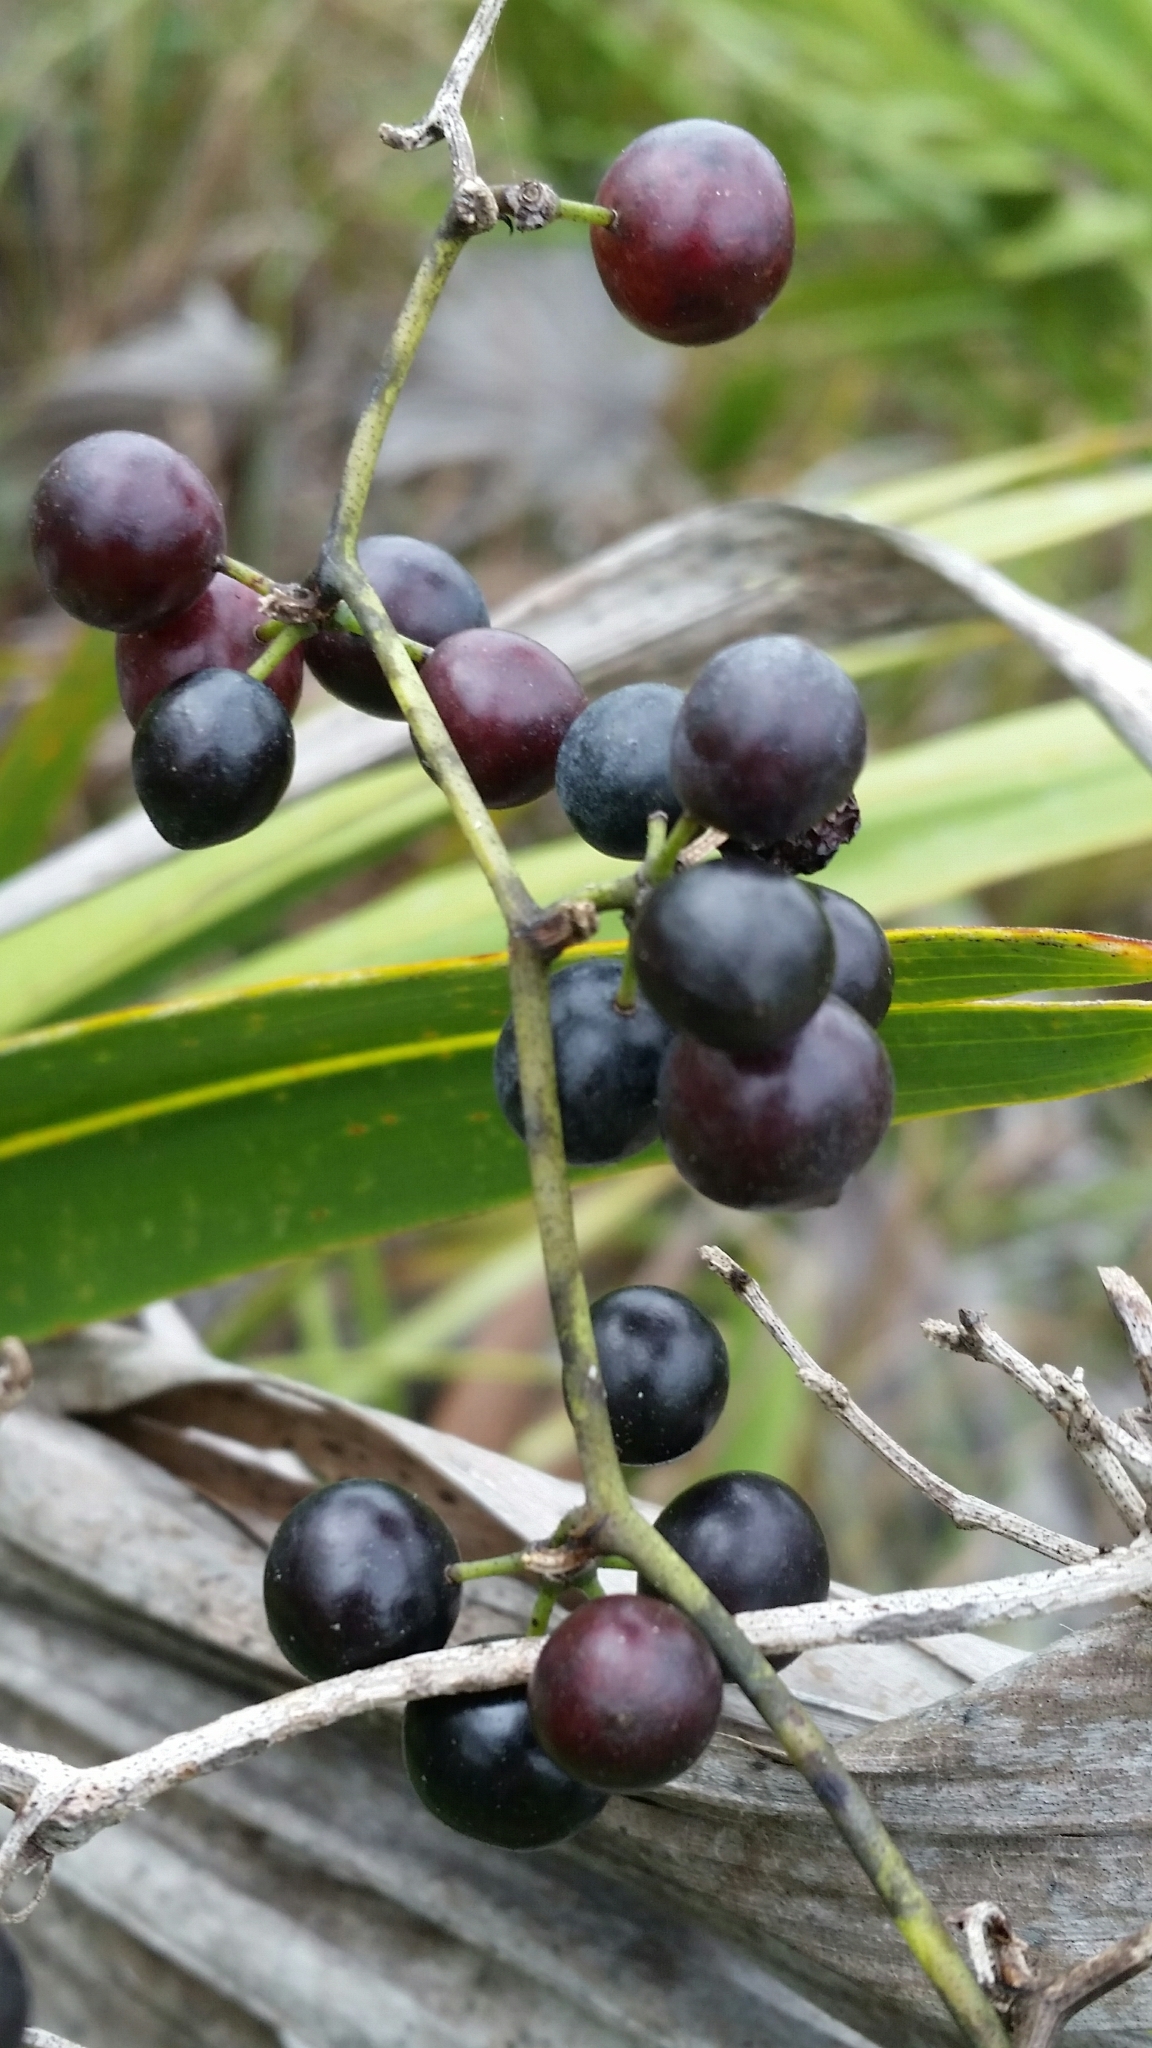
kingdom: Plantae
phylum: Tracheophyta
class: Liliopsida
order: Liliales
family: Smilacaceae
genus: Smilax
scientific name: Smilax auriculata
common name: Wild bamboo
